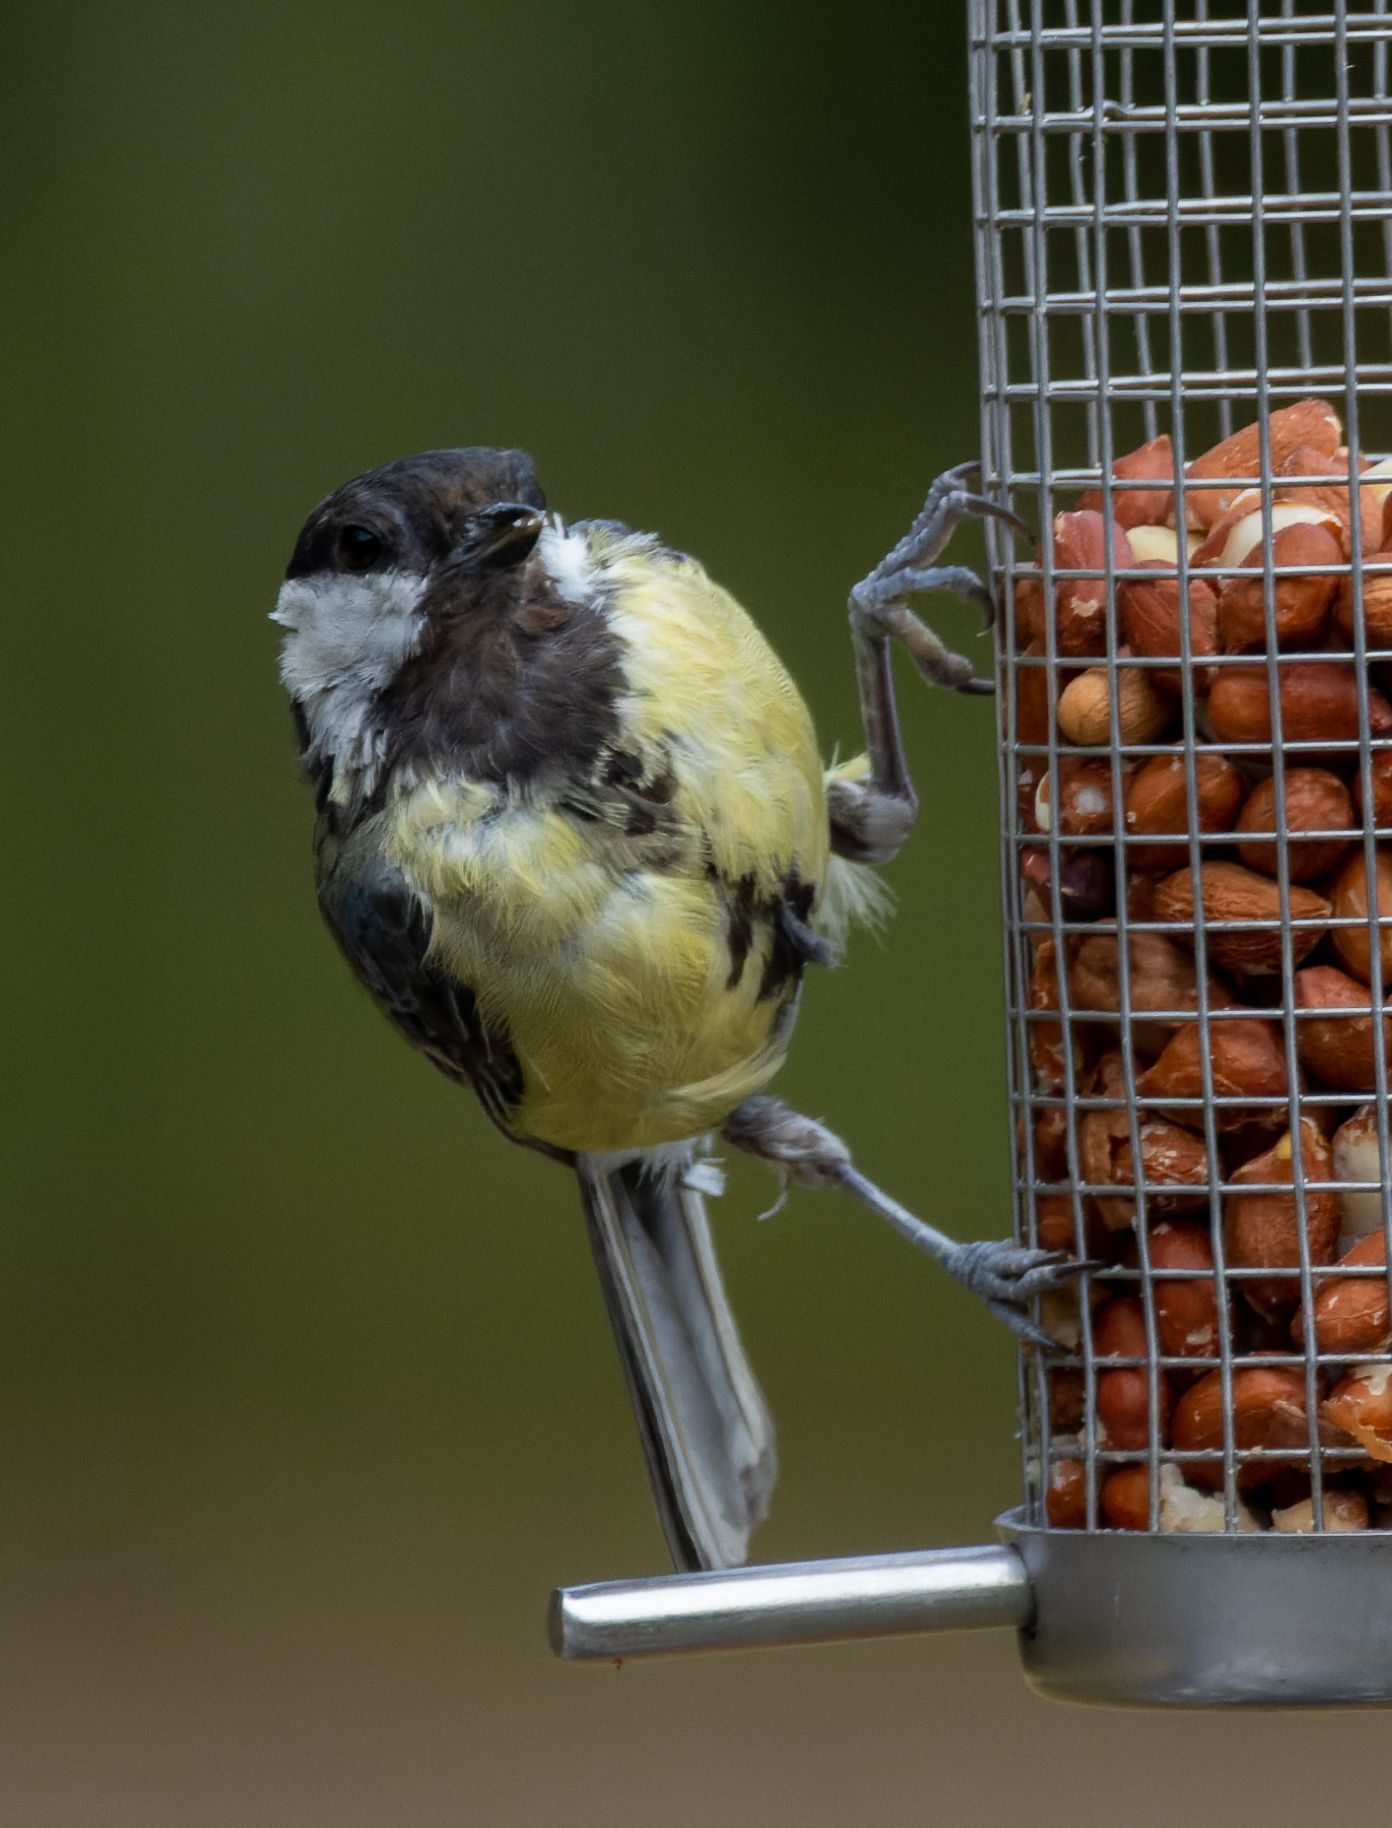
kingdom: Animalia
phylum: Chordata
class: Aves
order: Passeriformes
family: Paridae
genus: Parus
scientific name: Parus major
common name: Great tit
